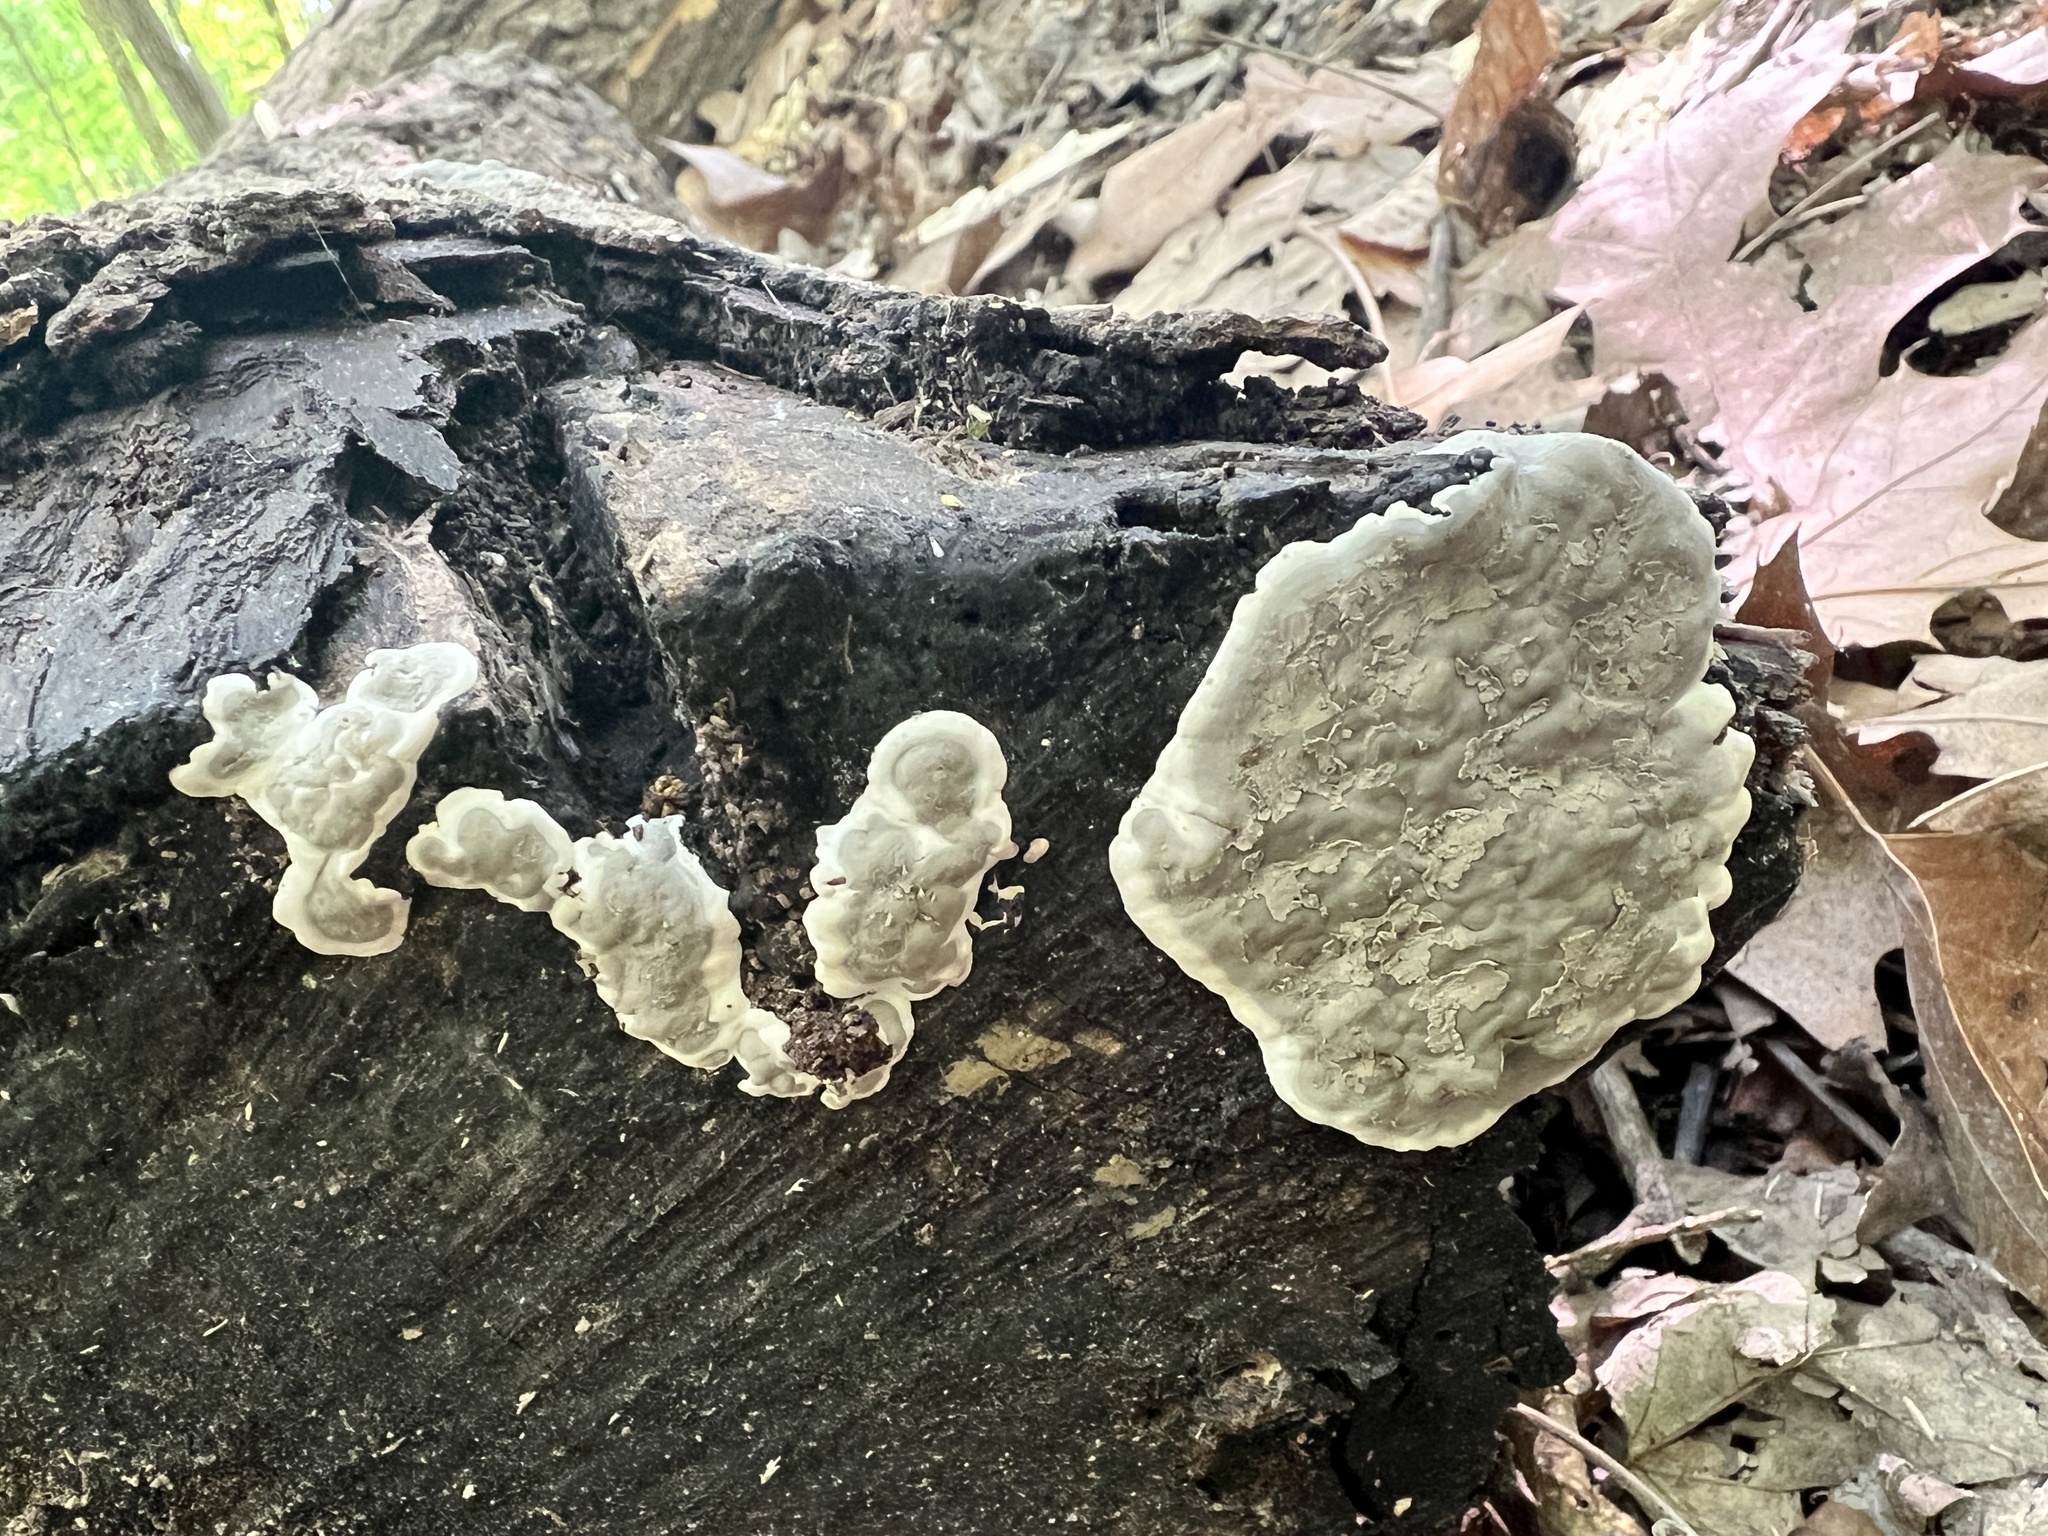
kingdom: Fungi
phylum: Ascomycota
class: Sordariomycetes
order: Xylariales
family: Xylariaceae
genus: Kretzschmaria
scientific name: Kretzschmaria hedjaroudei
